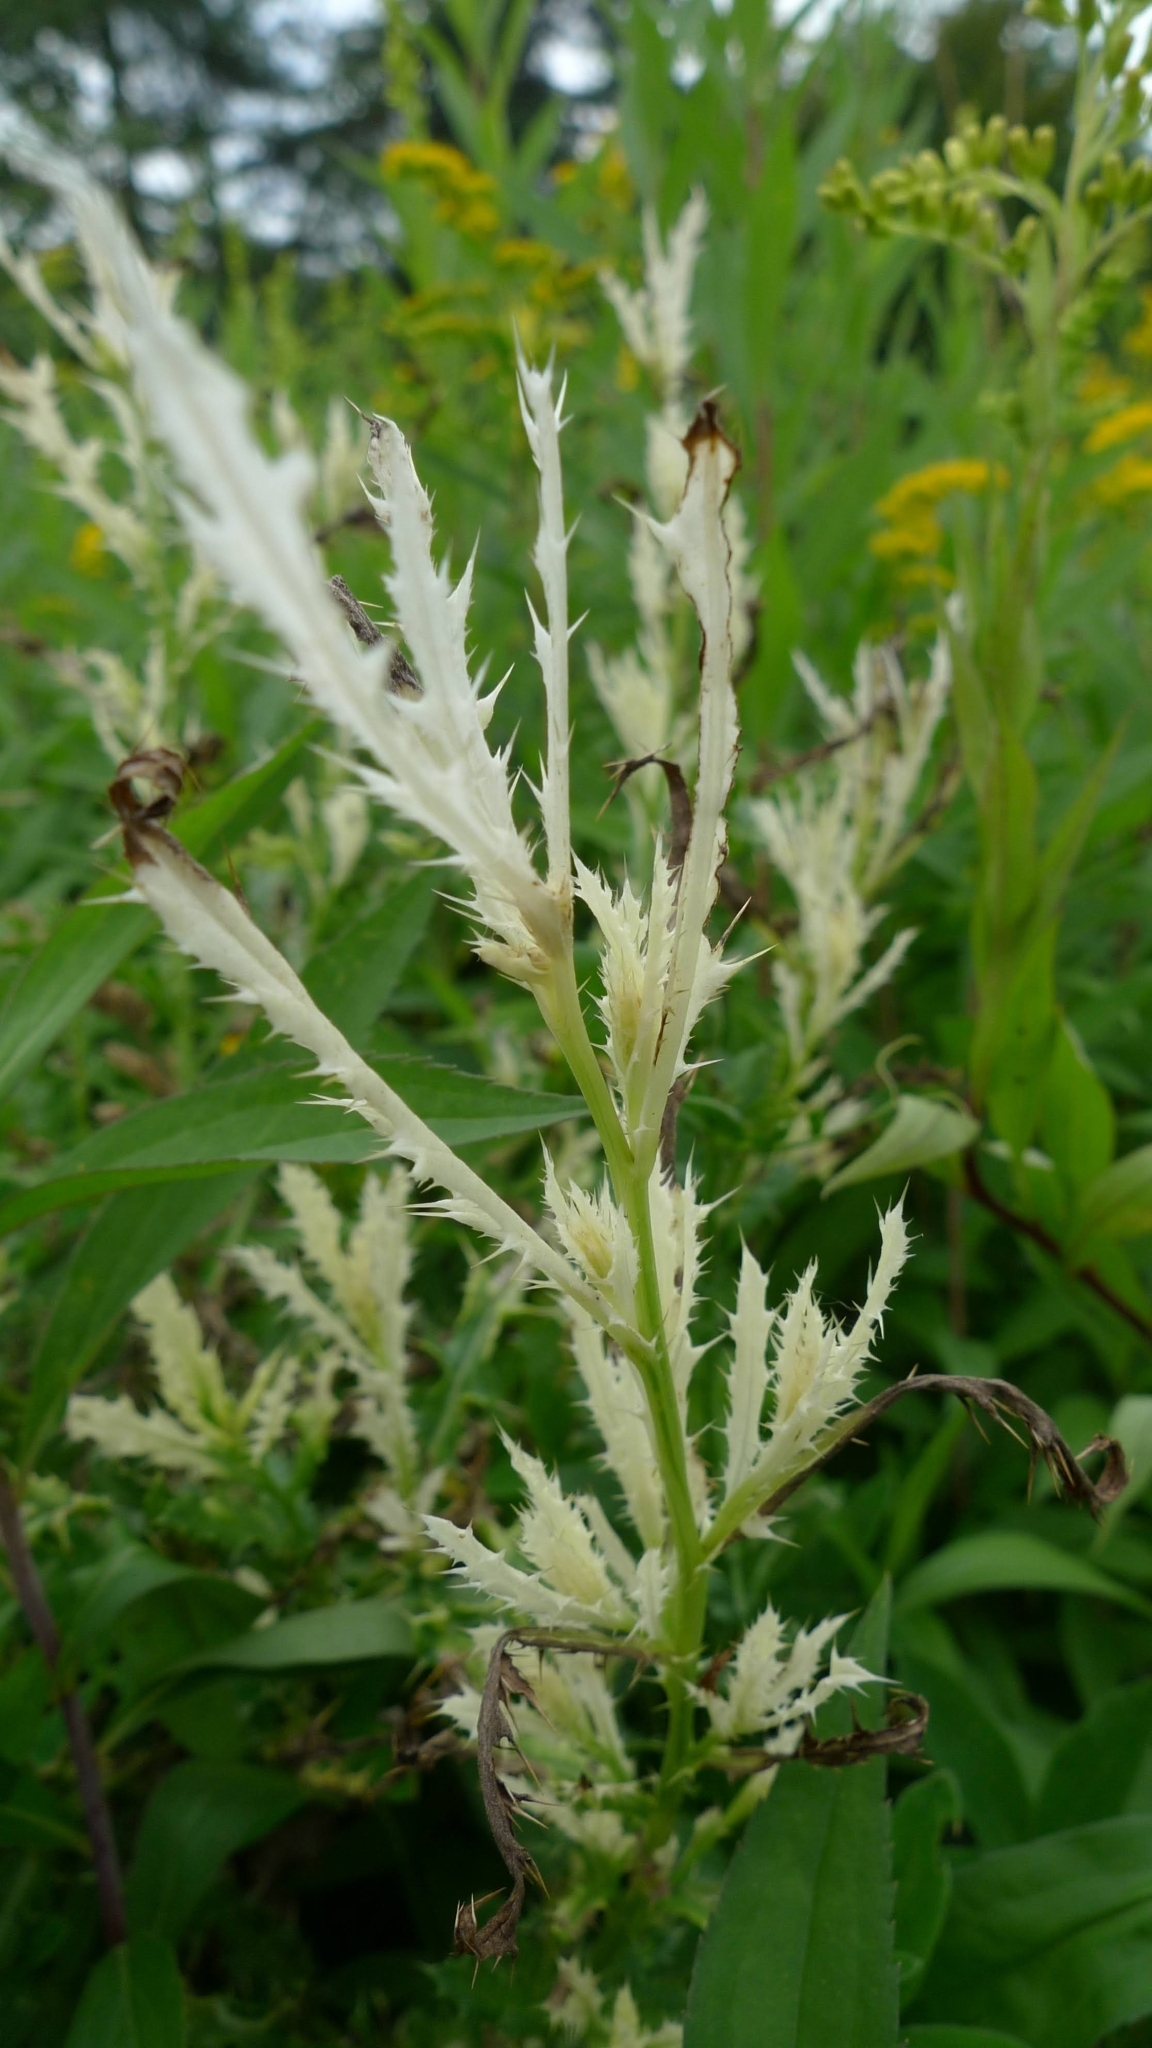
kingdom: Bacteria
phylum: Proteobacteria
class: Gammaproteobacteria
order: Pseudomonadales
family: Pseudomonadaceae
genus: Pseudomonas
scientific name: Pseudomonas syringae
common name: Bacterial speck
